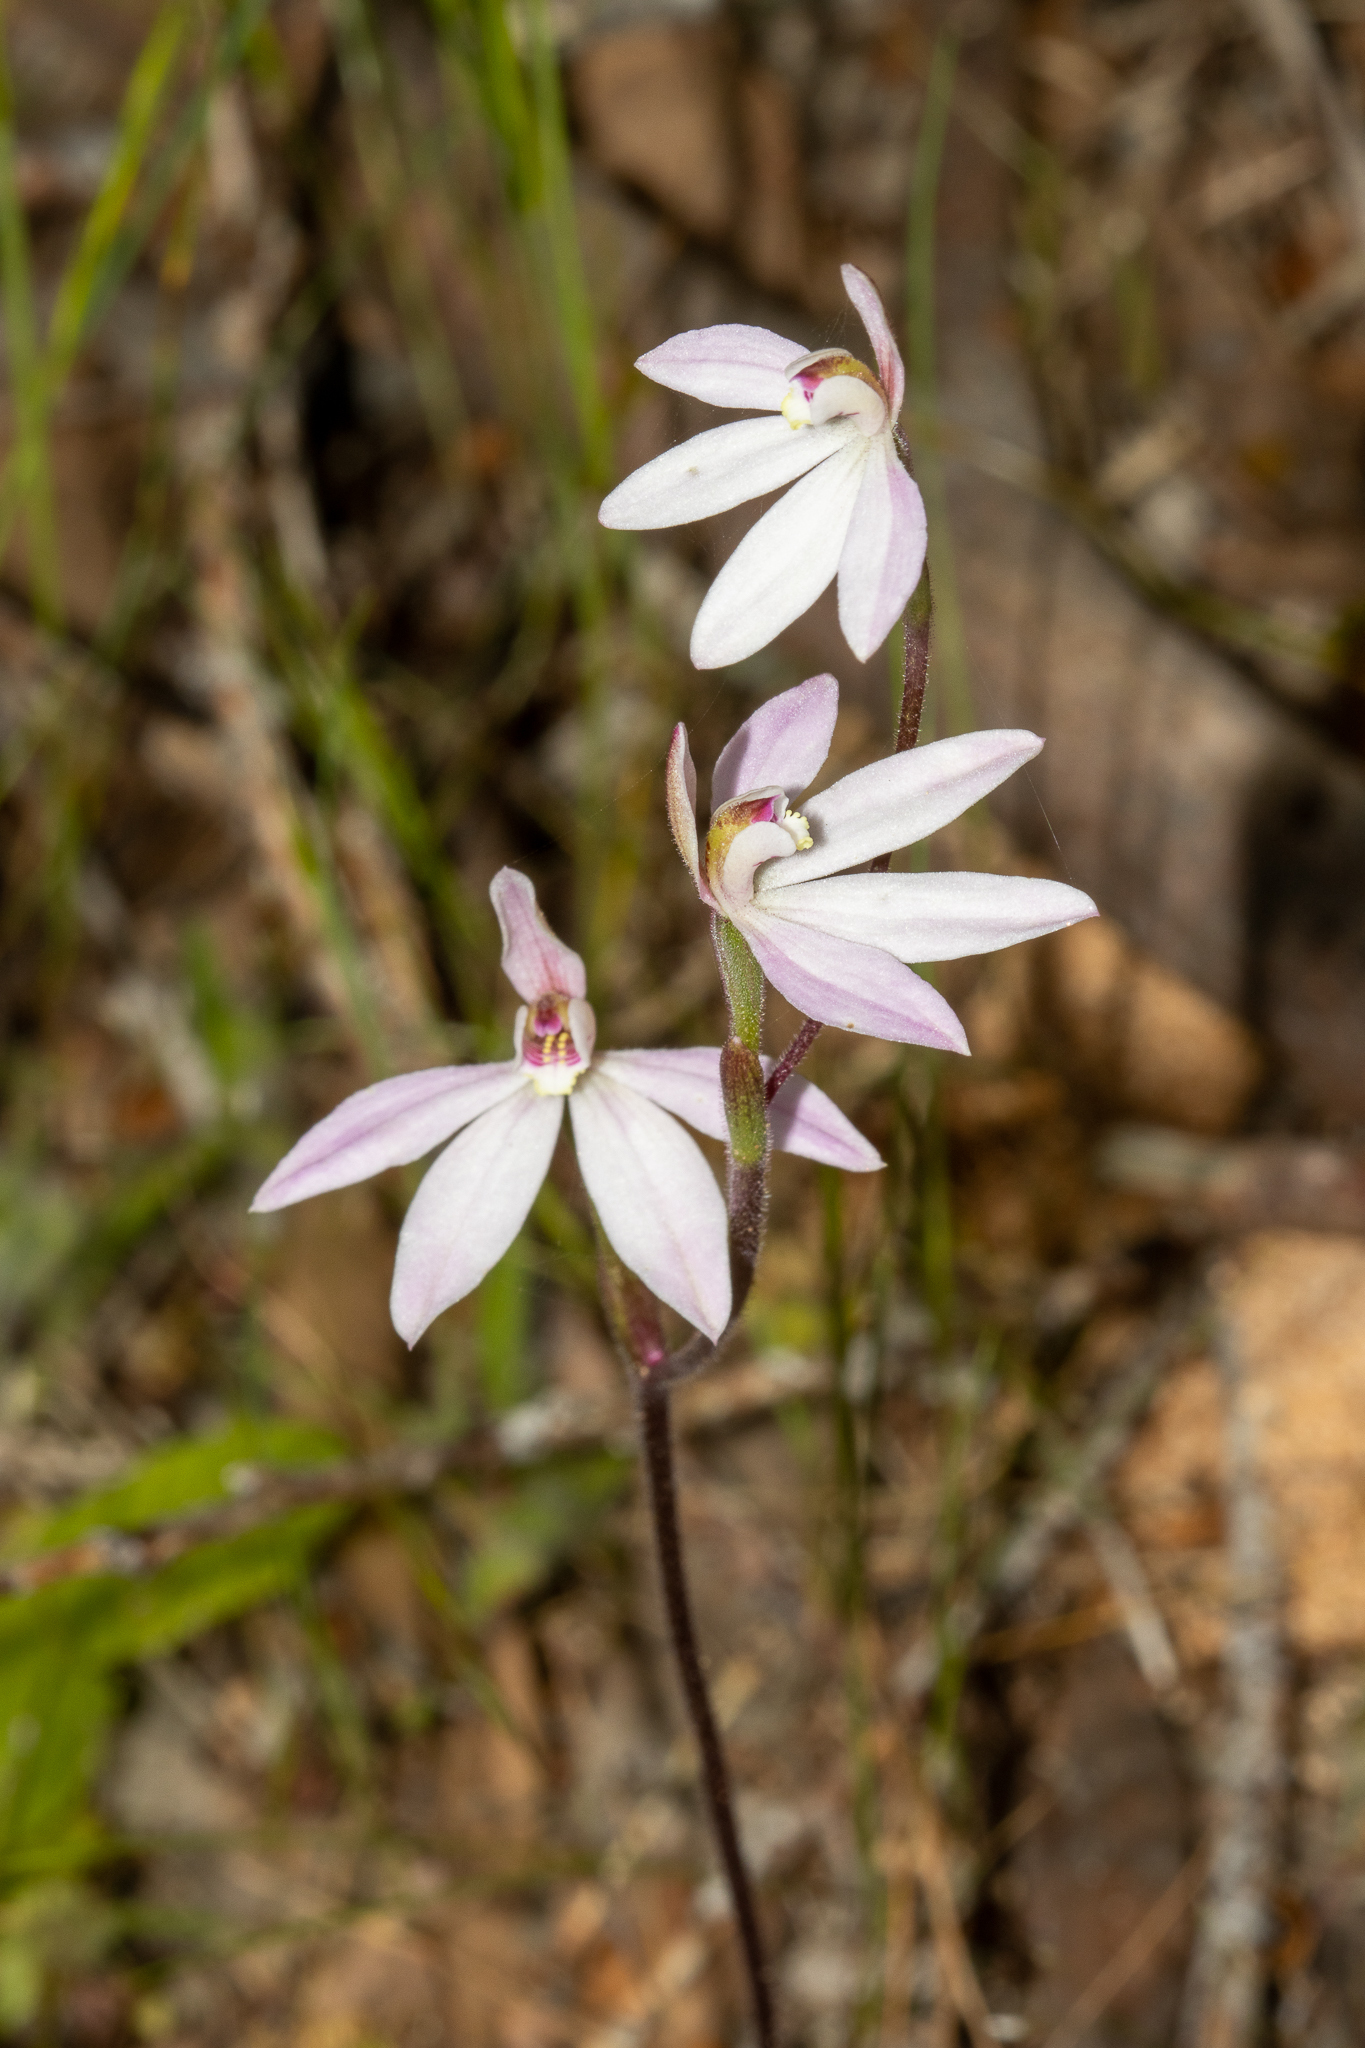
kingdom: Plantae
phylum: Tracheophyta
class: Liliopsida
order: Asparagales
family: Orchidaceae
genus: Caladenia
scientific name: Caladenia carnea
